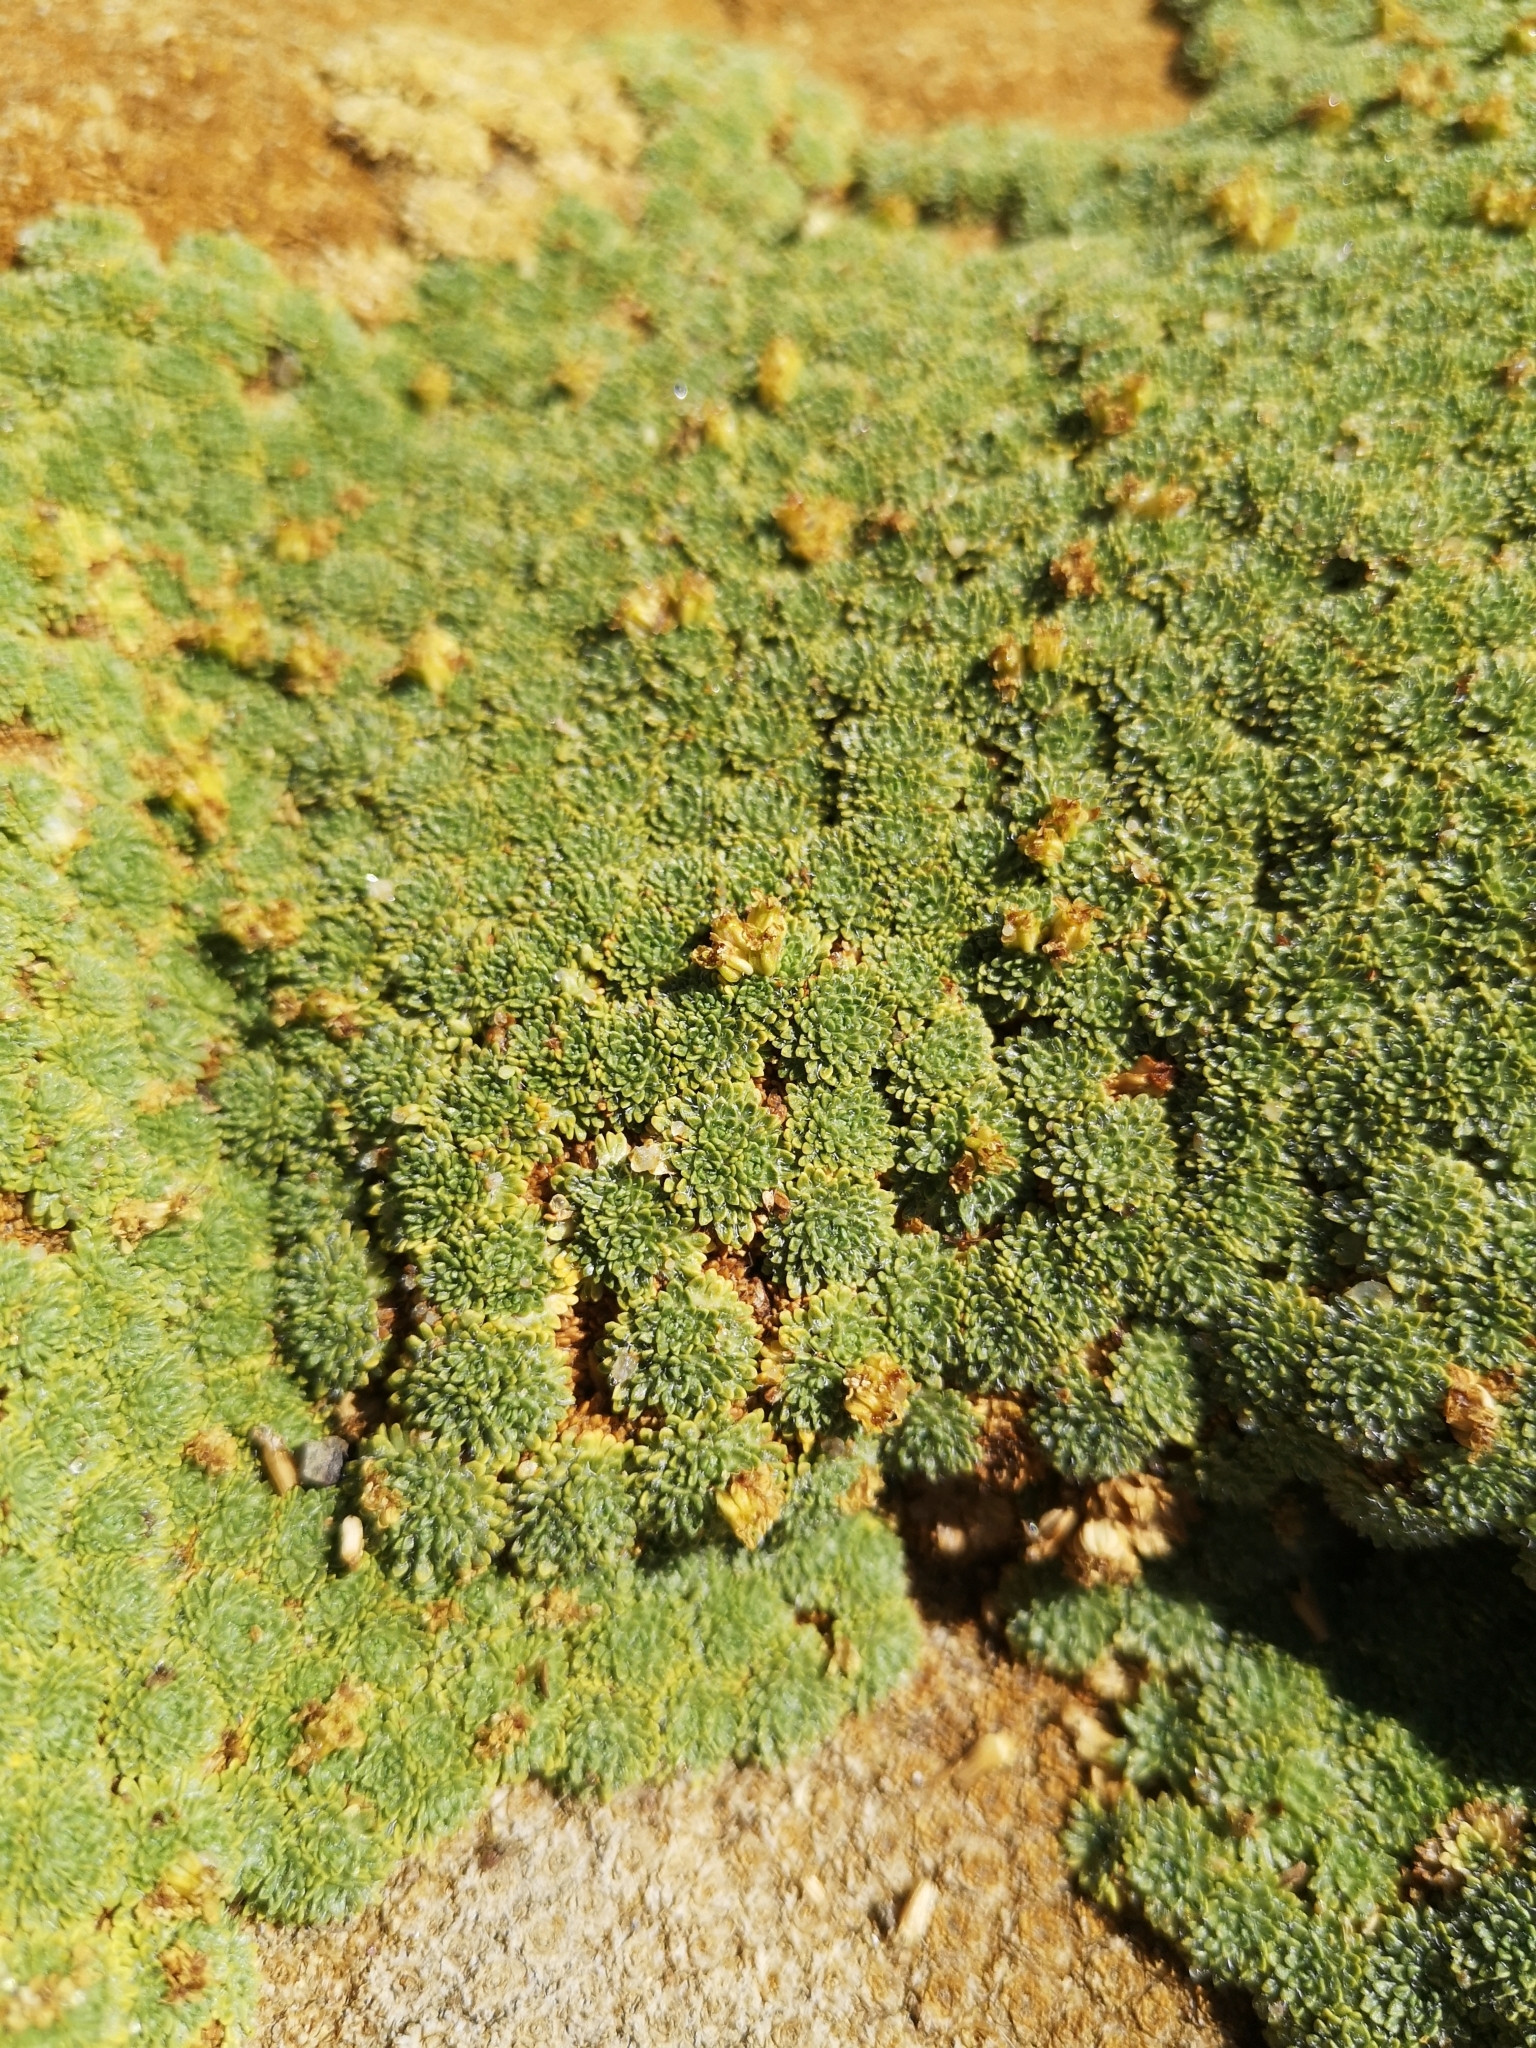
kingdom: Plantae
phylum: Tracheophyta
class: Magnoliopsida
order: Apiales
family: Apiaceae
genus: Azorella
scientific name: Azorella madreporica
